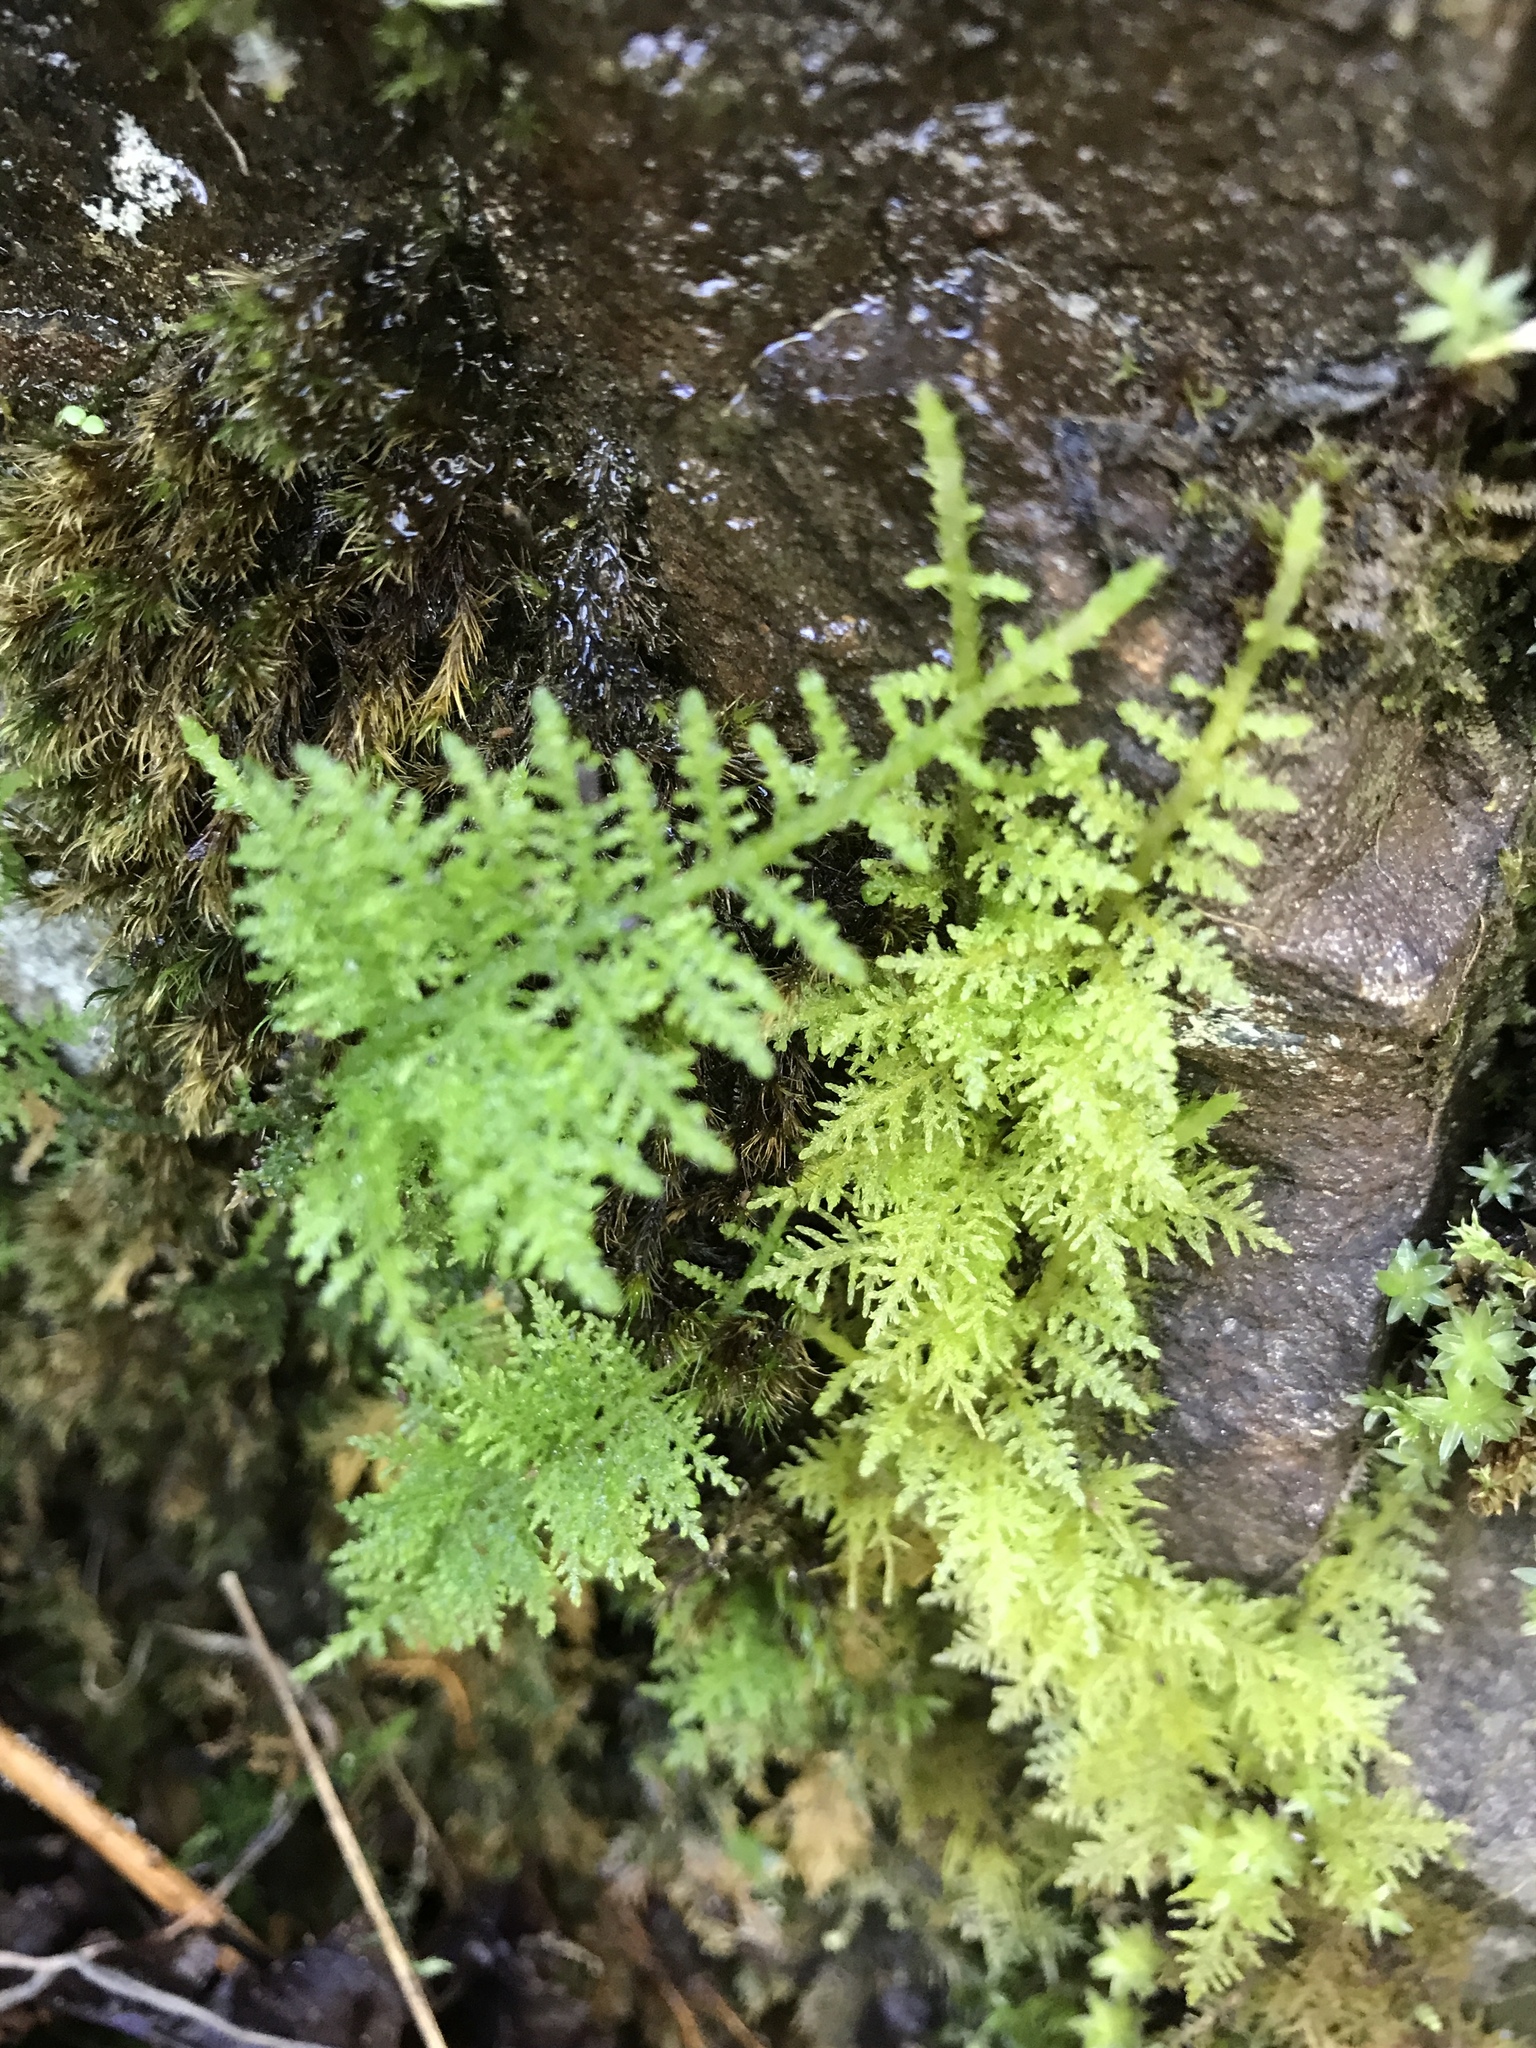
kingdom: Plantae
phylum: Bryophyta
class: Bryopsida
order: Hypnales
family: Thuidiaceae
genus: Thuidium
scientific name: Thuidium tamariscinum
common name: Common tamarisk-moss
